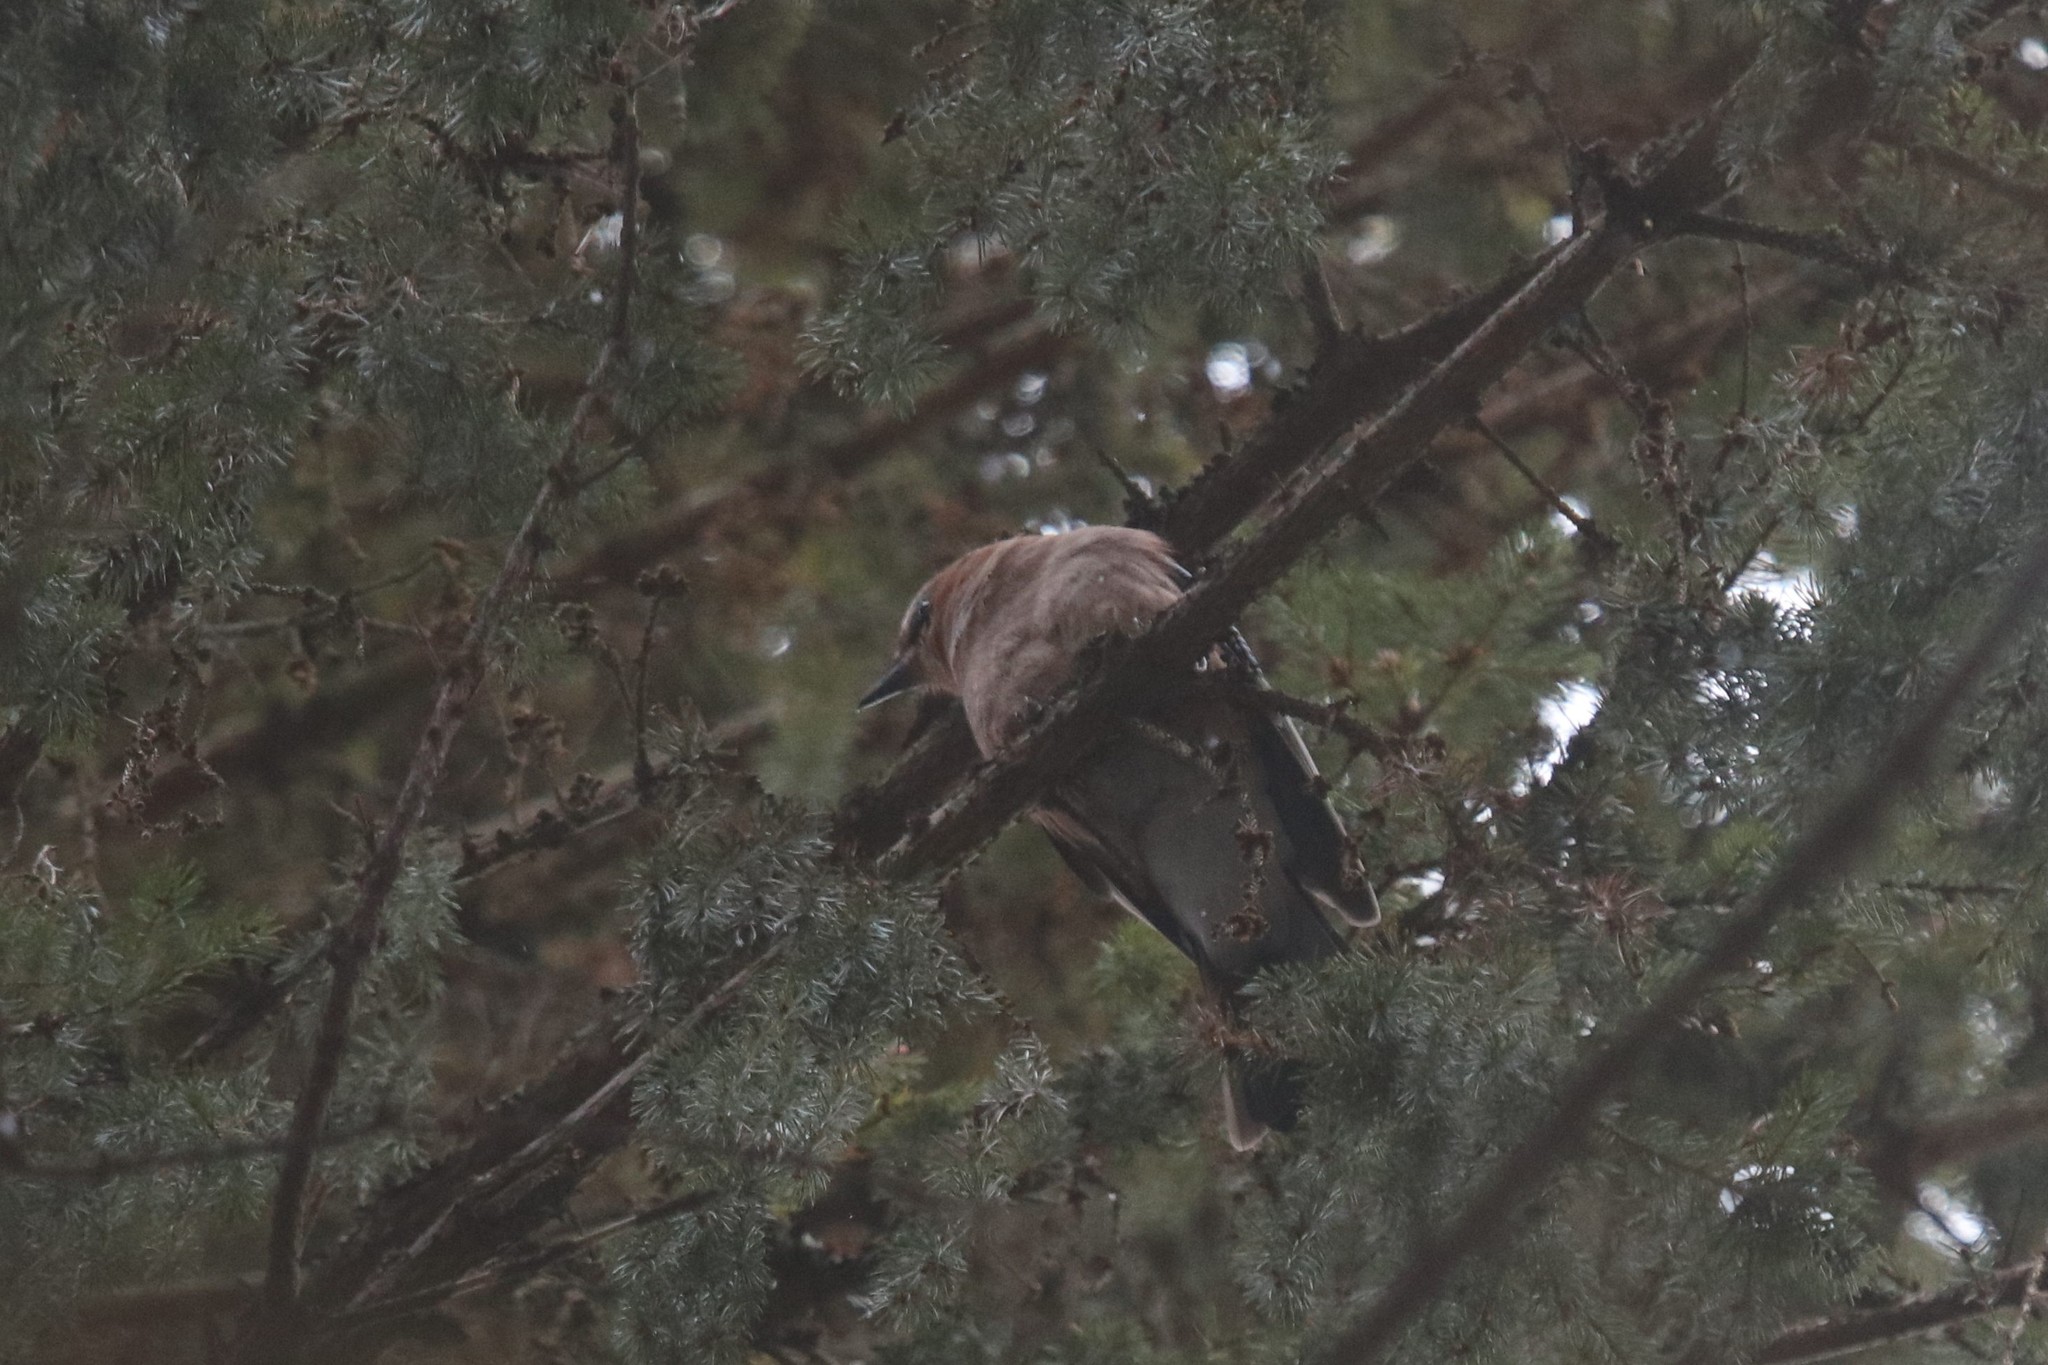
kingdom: Animalia
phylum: Chordata
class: Aves
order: Passeriformes
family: Corvidae
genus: Garrulus
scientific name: Garrulus glandarius
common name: Eurasian jay
